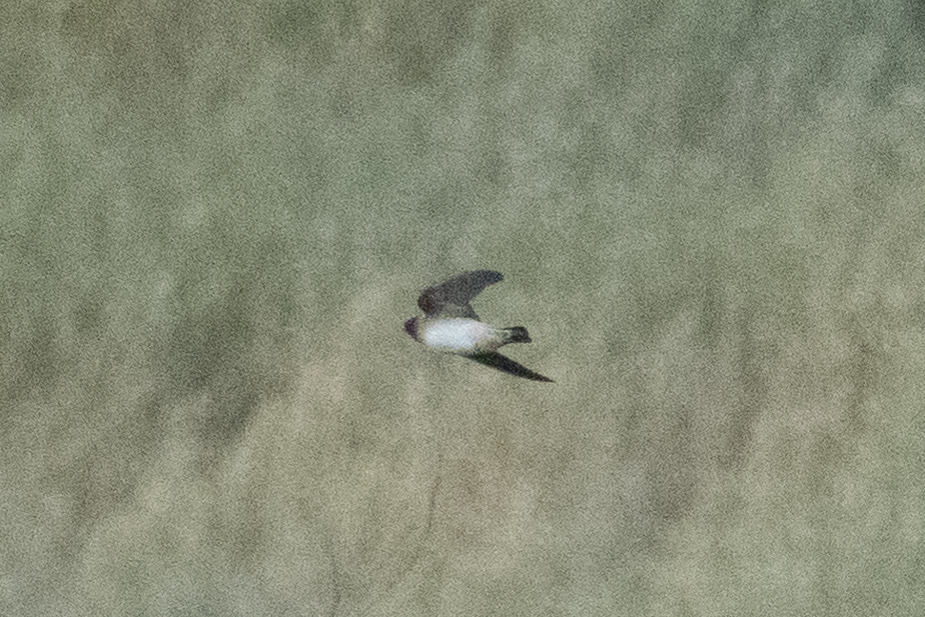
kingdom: Animalia
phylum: Chordata
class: Aves
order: Passeriformes
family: Hirundinidae
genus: Petrochelidon
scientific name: Petrochelidon pyrrhonota
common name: American cliff swallow
